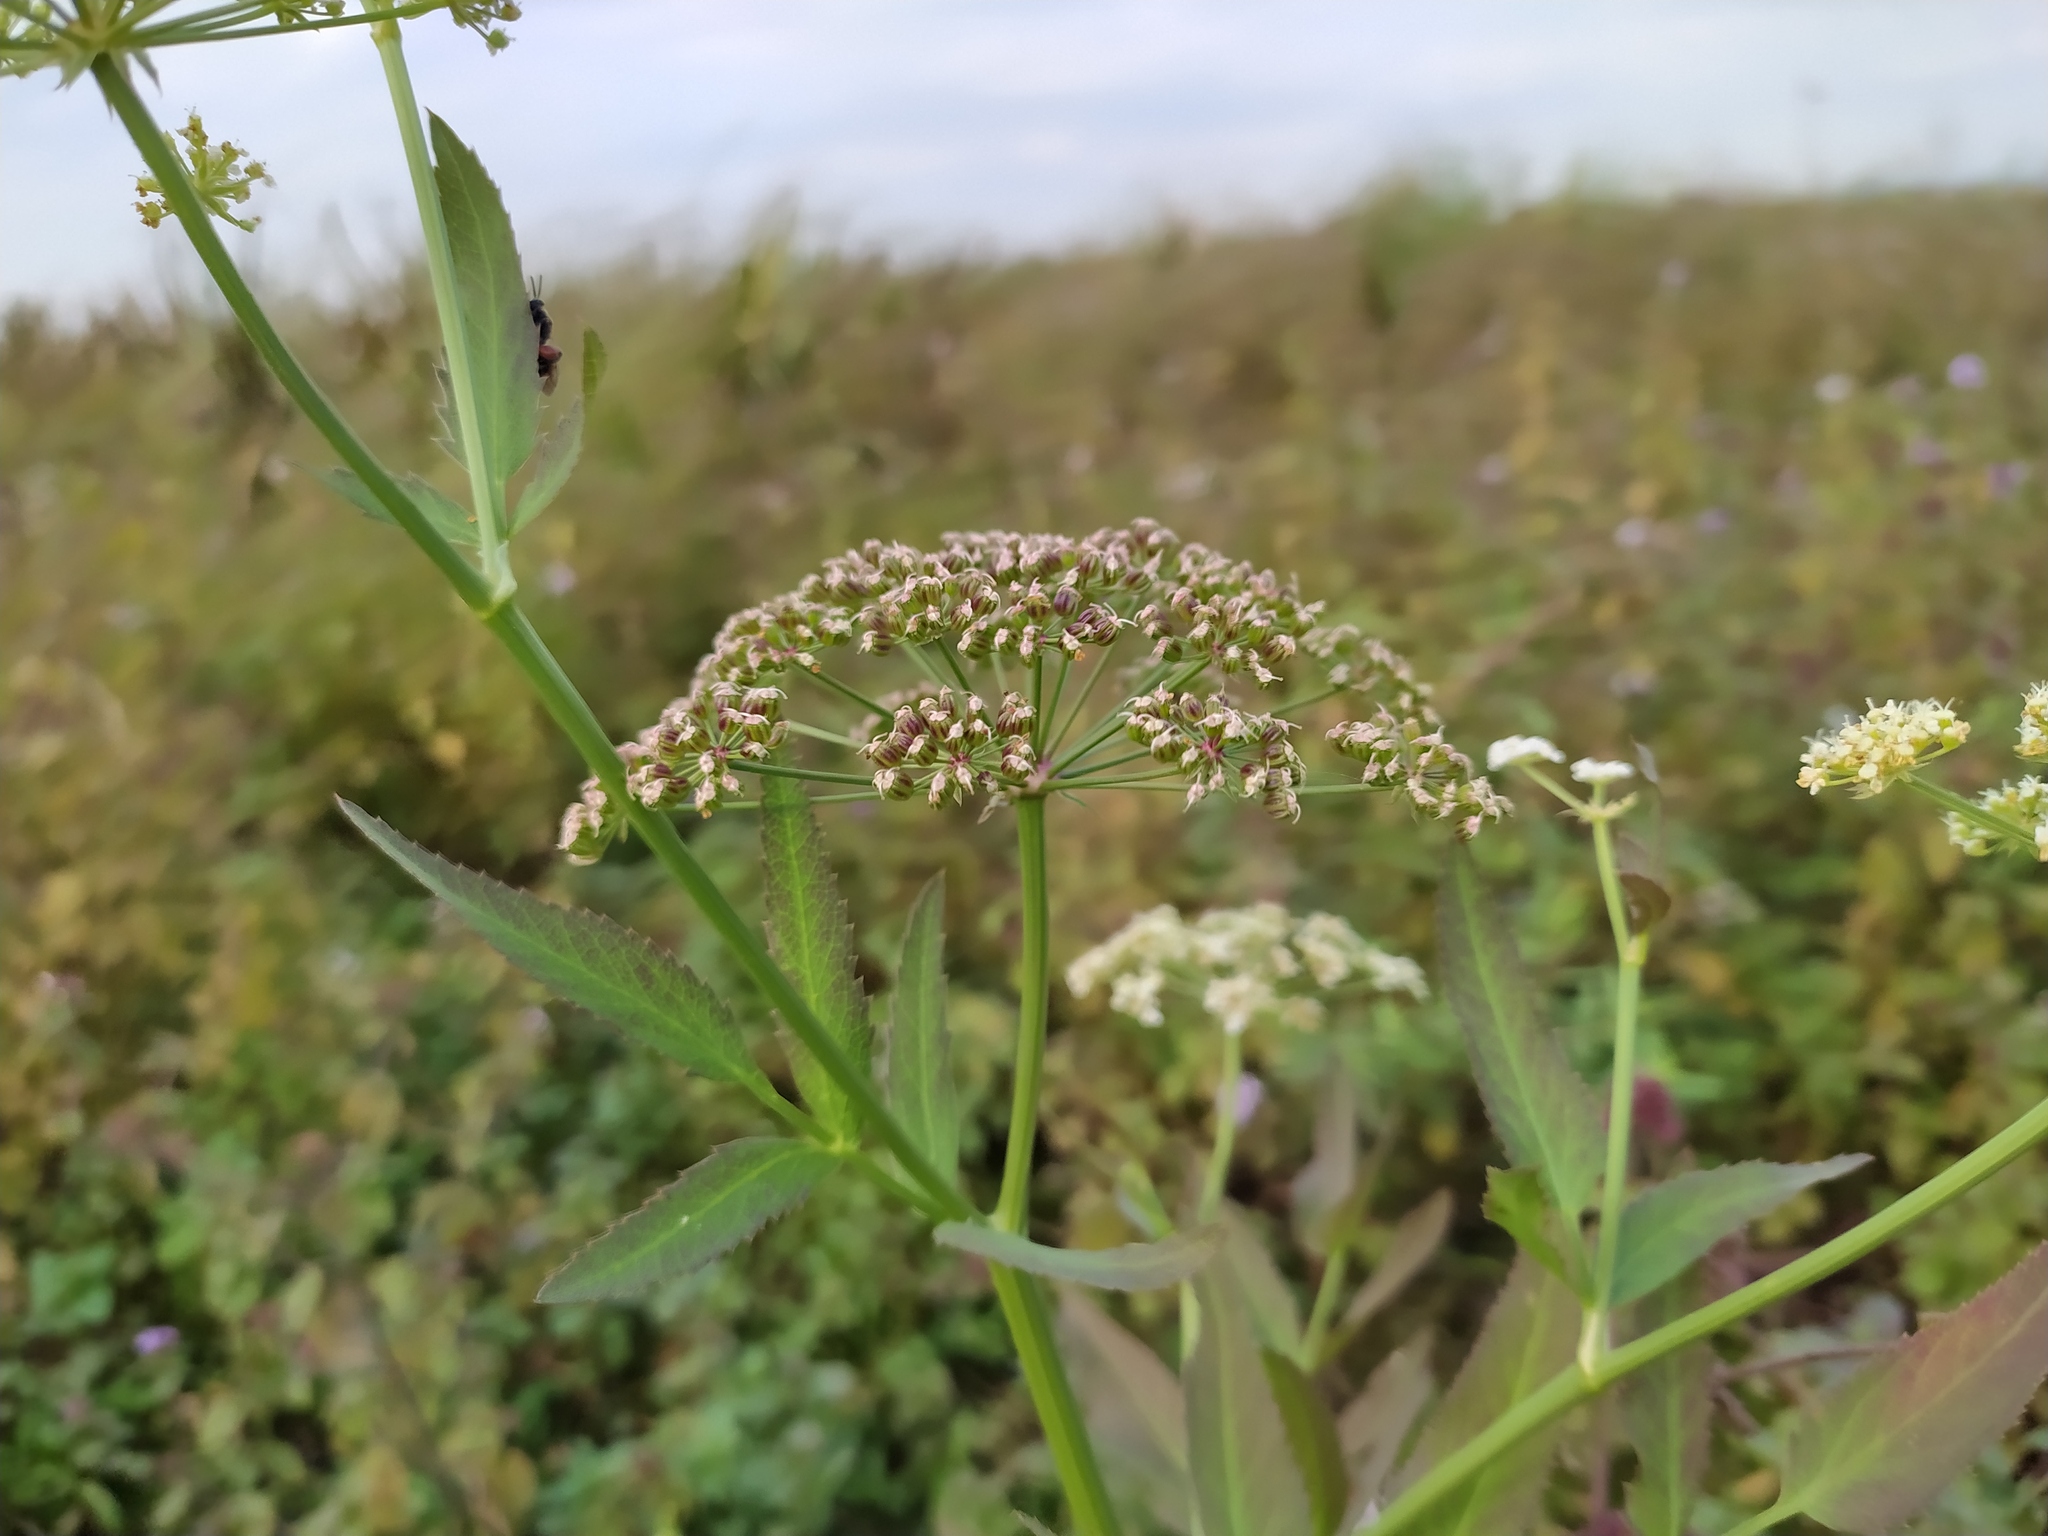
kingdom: Plantae
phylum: Tracheophyta
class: Magnoliopsida
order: Apiales
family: Apiaceae
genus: Sium
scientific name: Sium latifolium
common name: Greater water-parsnip
